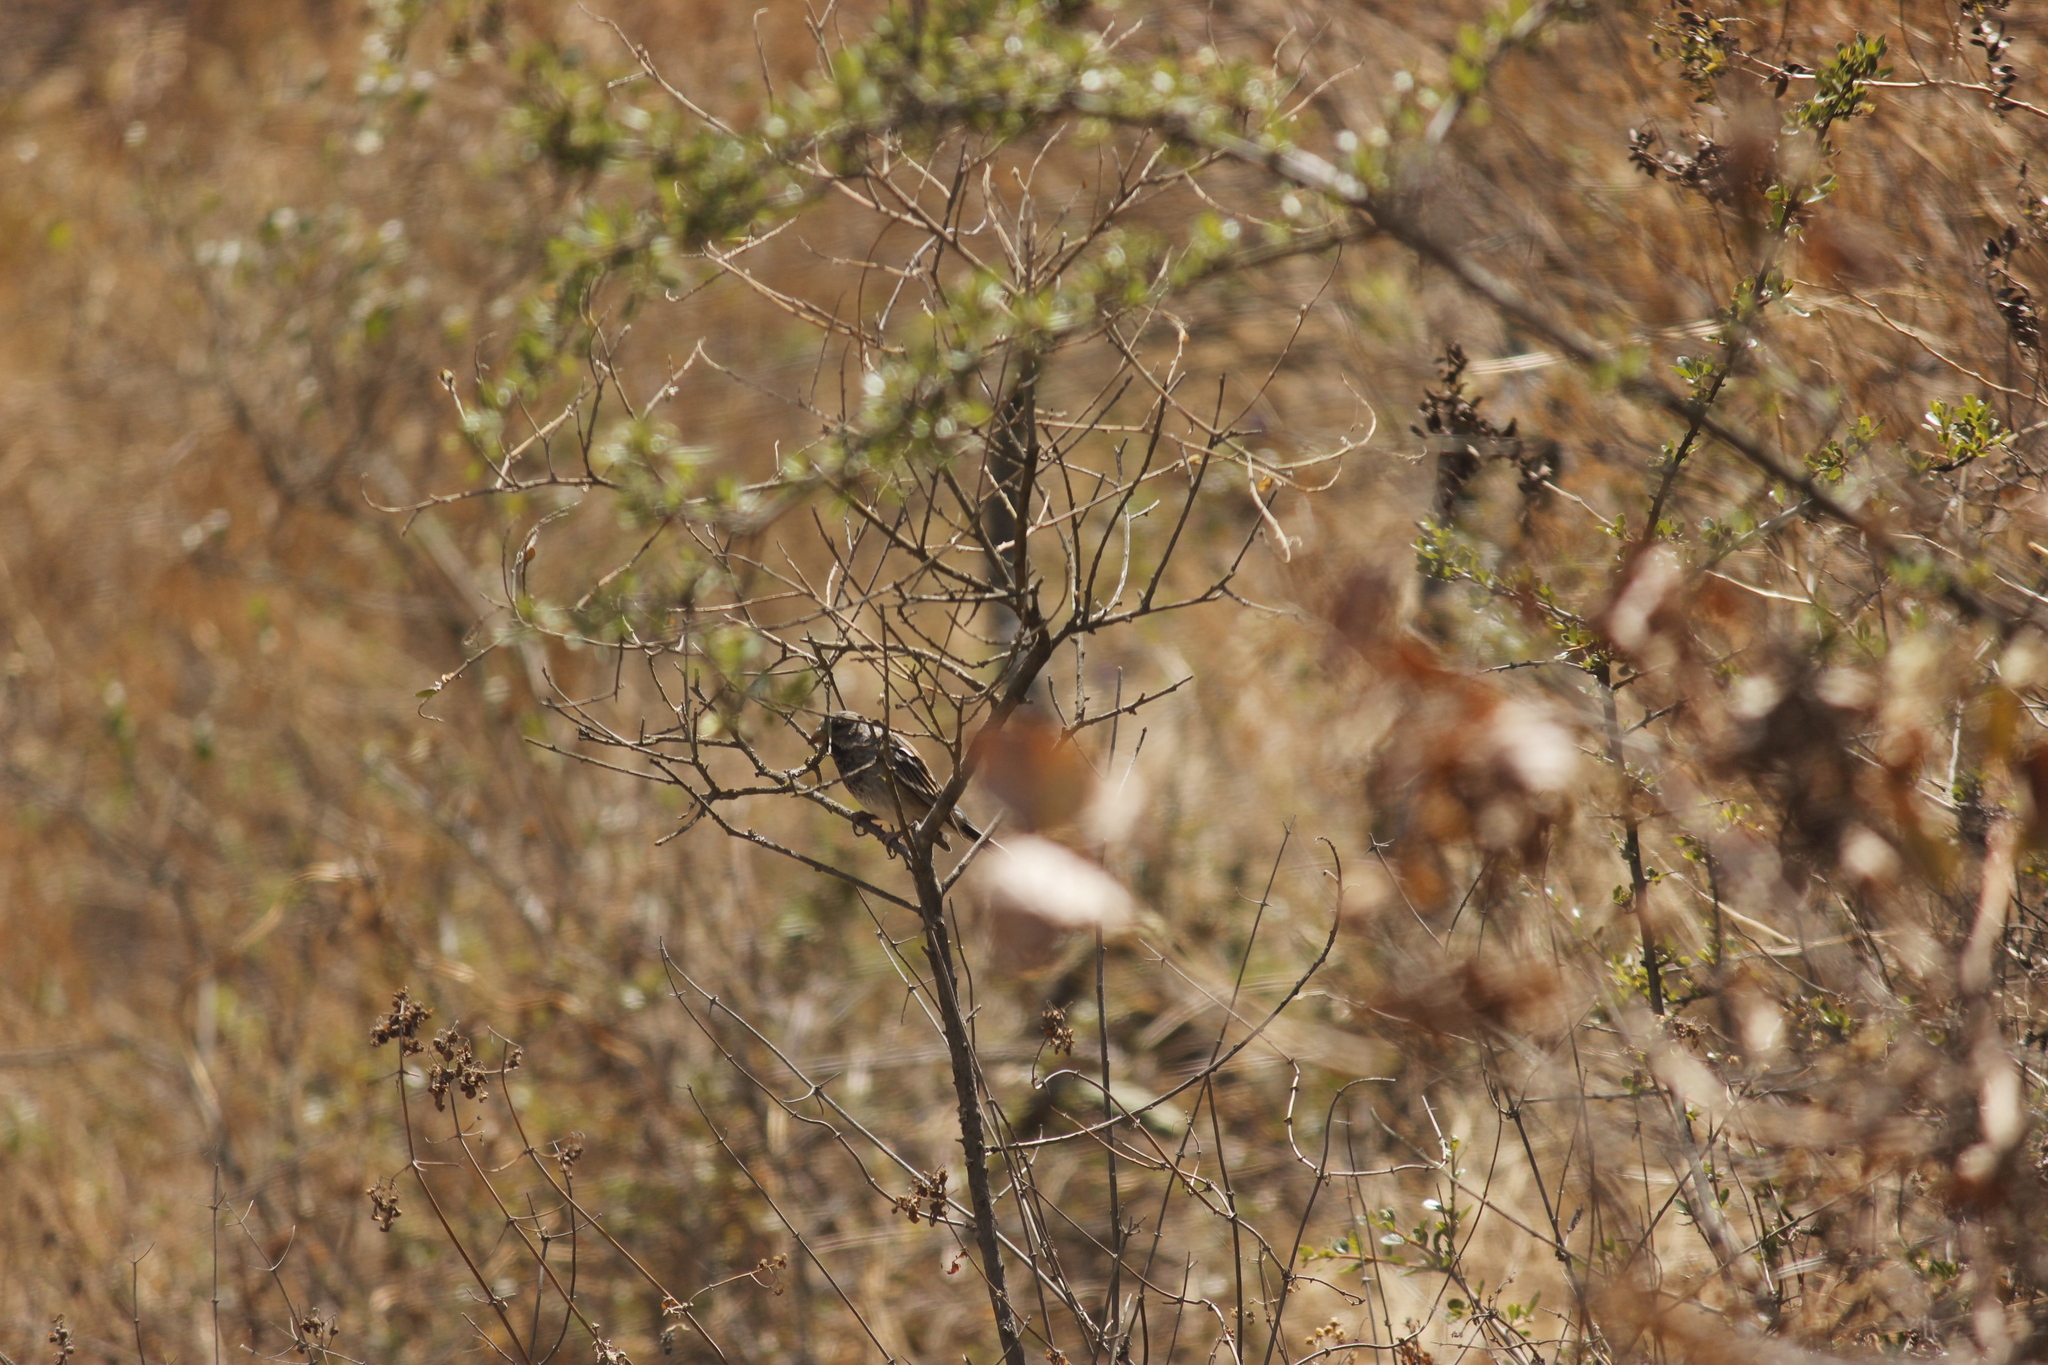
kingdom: Animalia
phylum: Chordata
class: Aves
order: Passeriformes
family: Thraupidae
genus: Rhopospina
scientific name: Rhopospina fruticeti
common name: Mourning sierra finch
